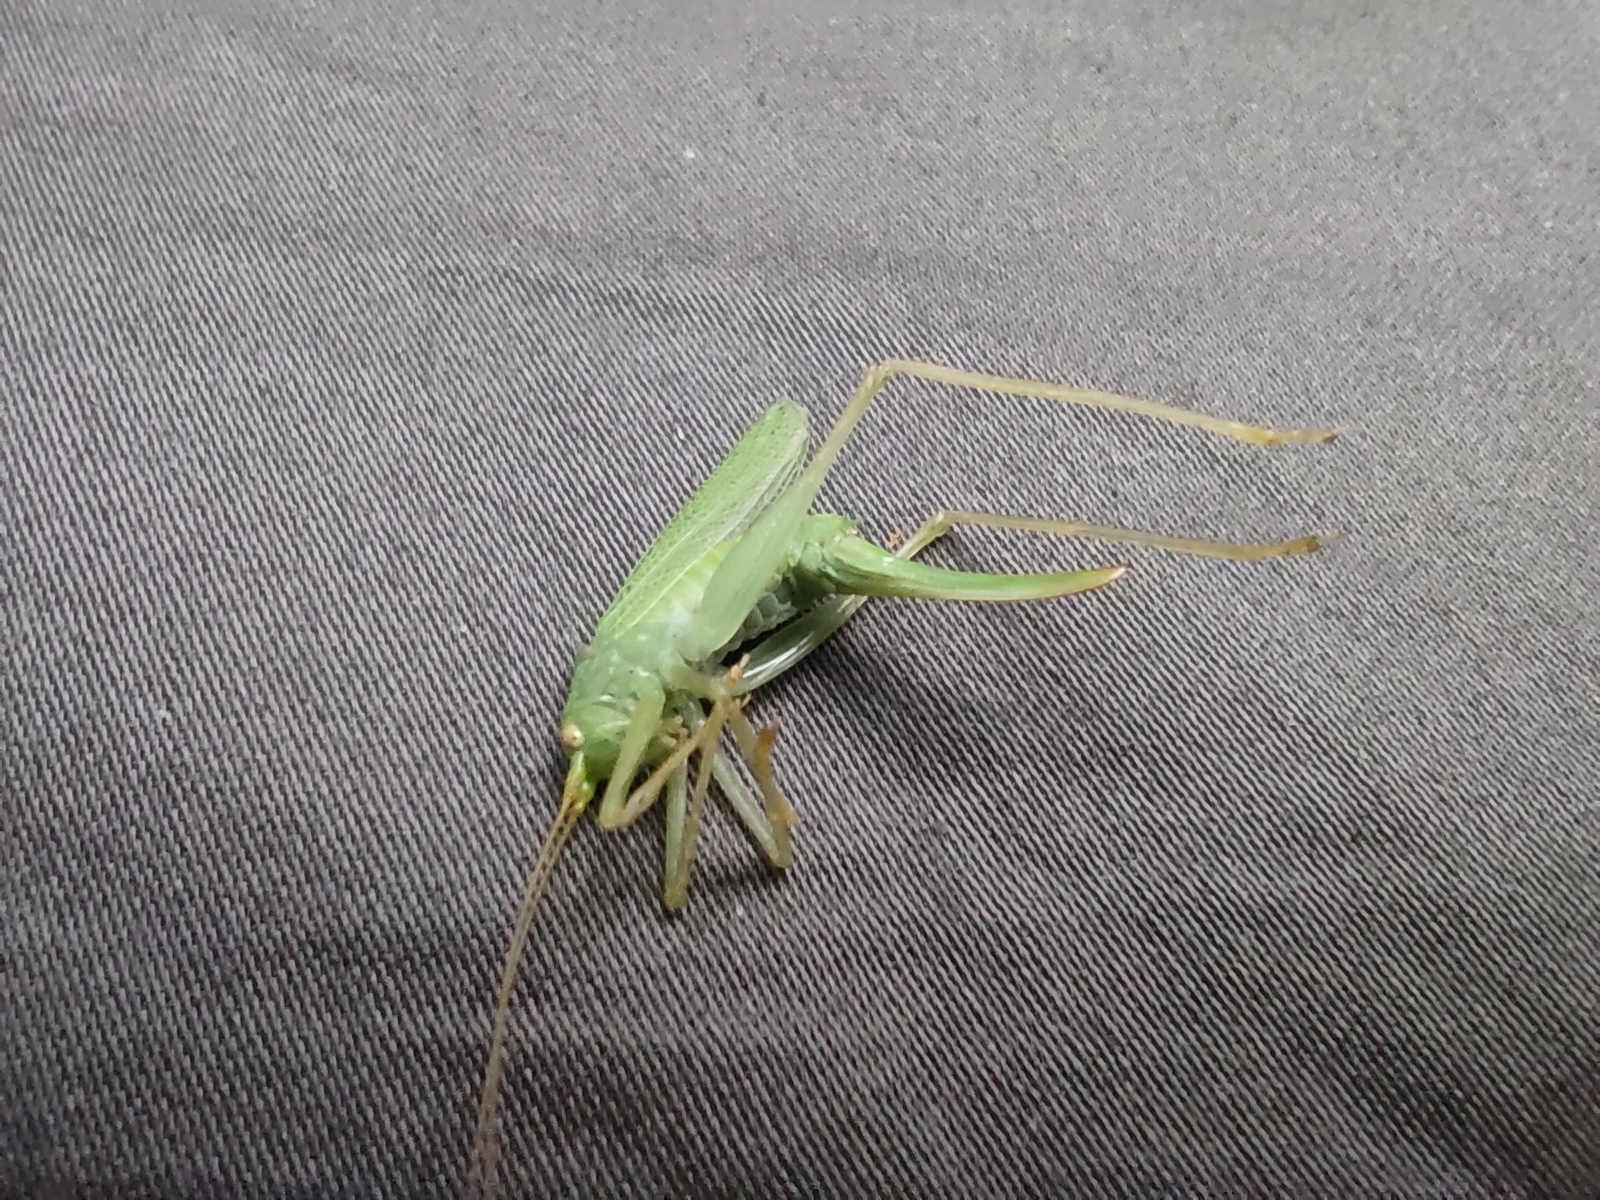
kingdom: Animalia
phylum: Arthropoda
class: Insecta
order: Orthoptera
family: Tettigoniidae
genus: Meconema
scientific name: Meconema thalassinum
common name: Oak bush-cricket
